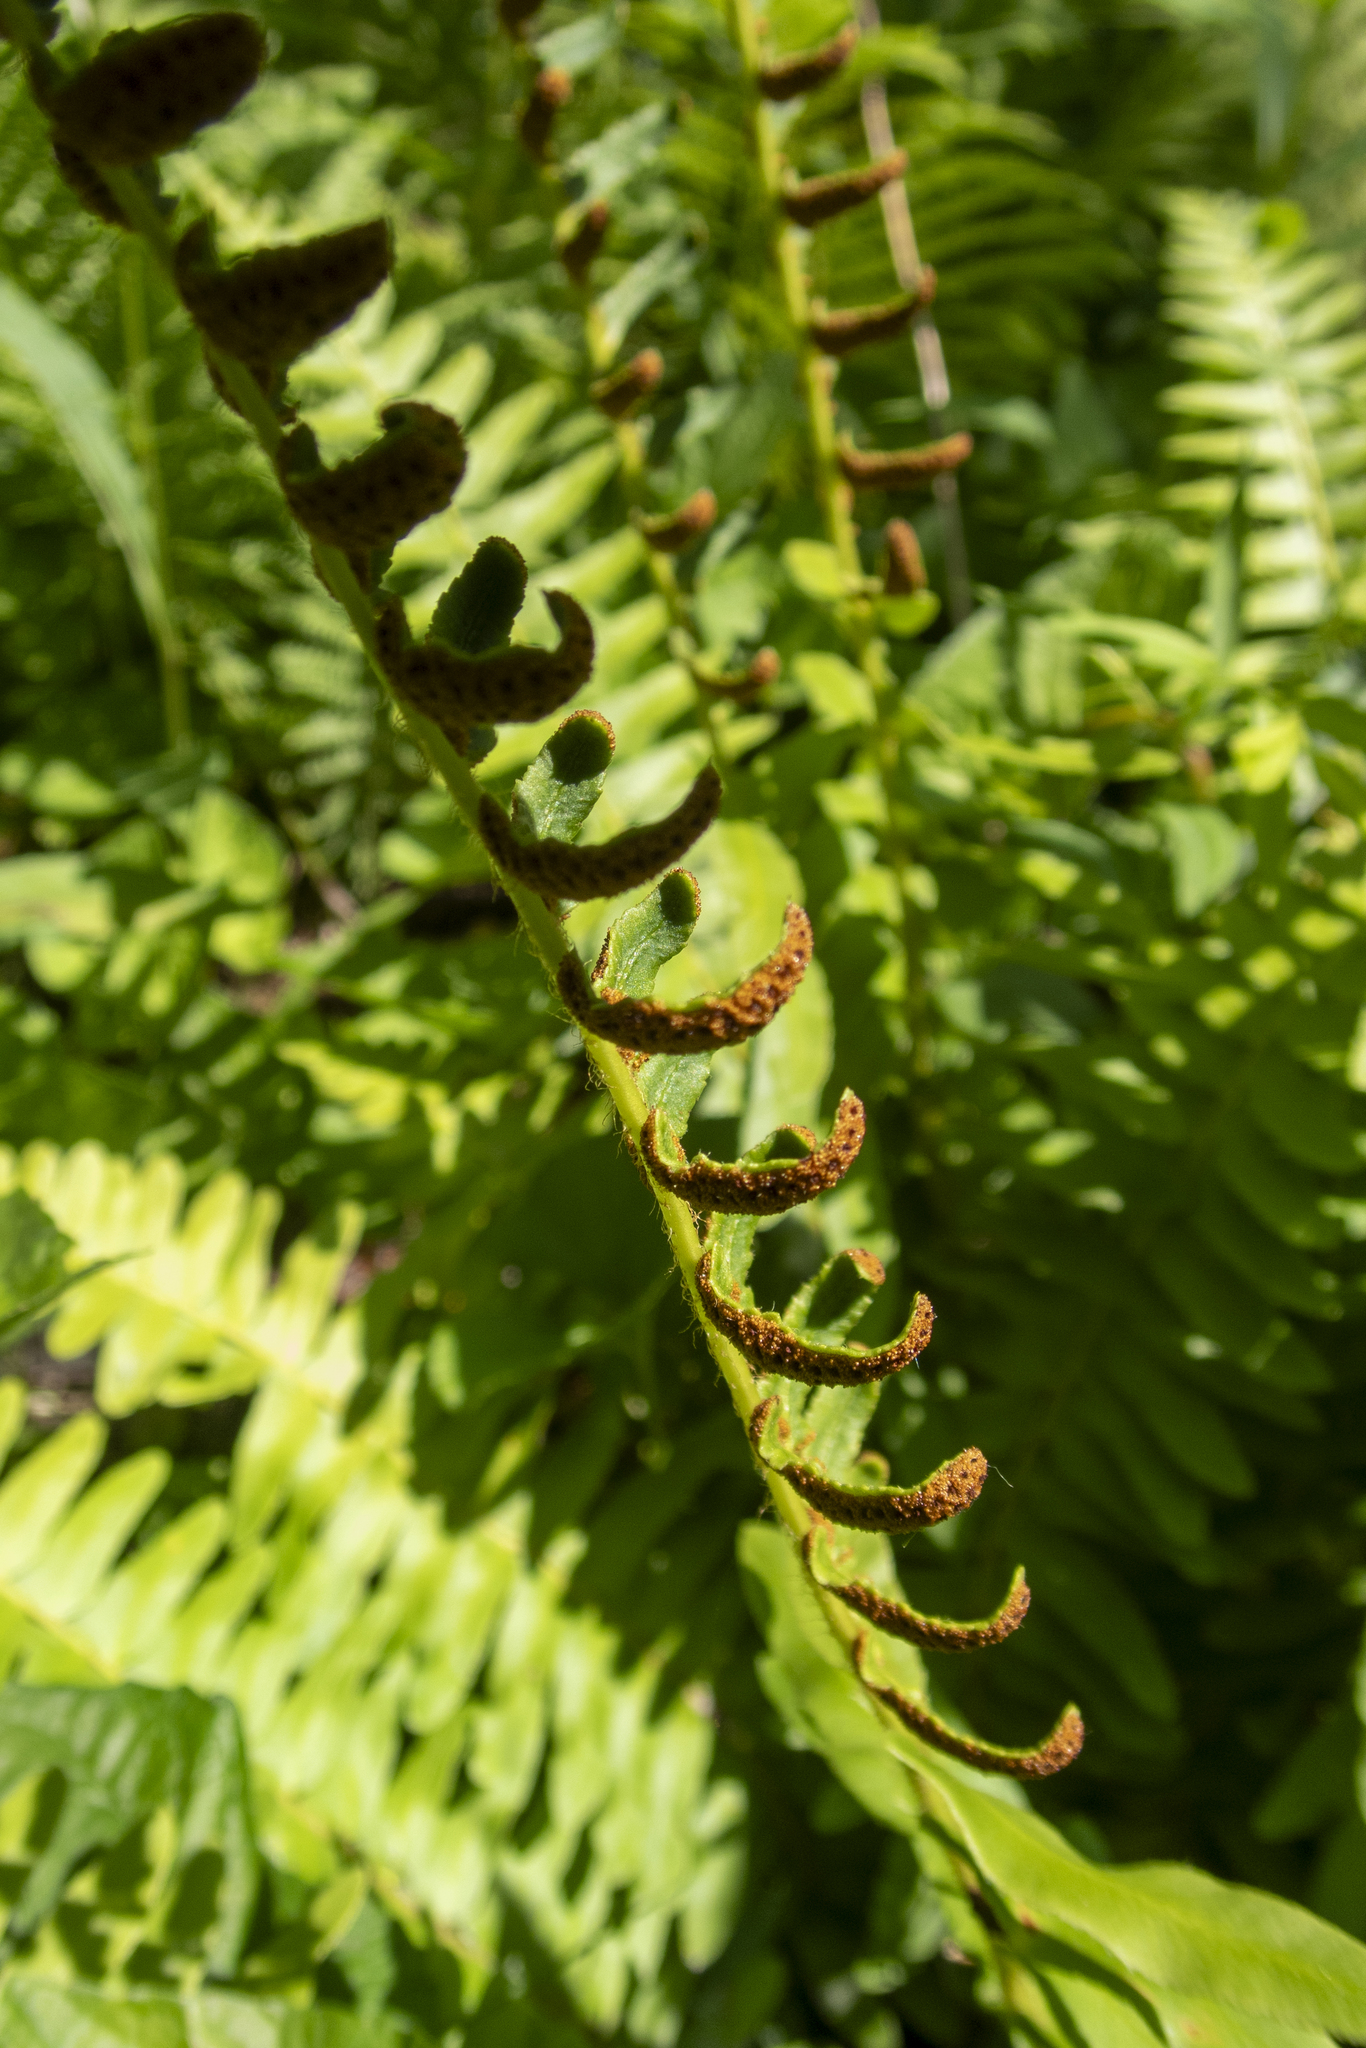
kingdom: Plantae
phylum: Tracheophyta
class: Polypodiopsida
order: Polypodiales
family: Dryopteridaceae
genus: Polystichum
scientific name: Polystichum acrostichoides
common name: Christmas fern
